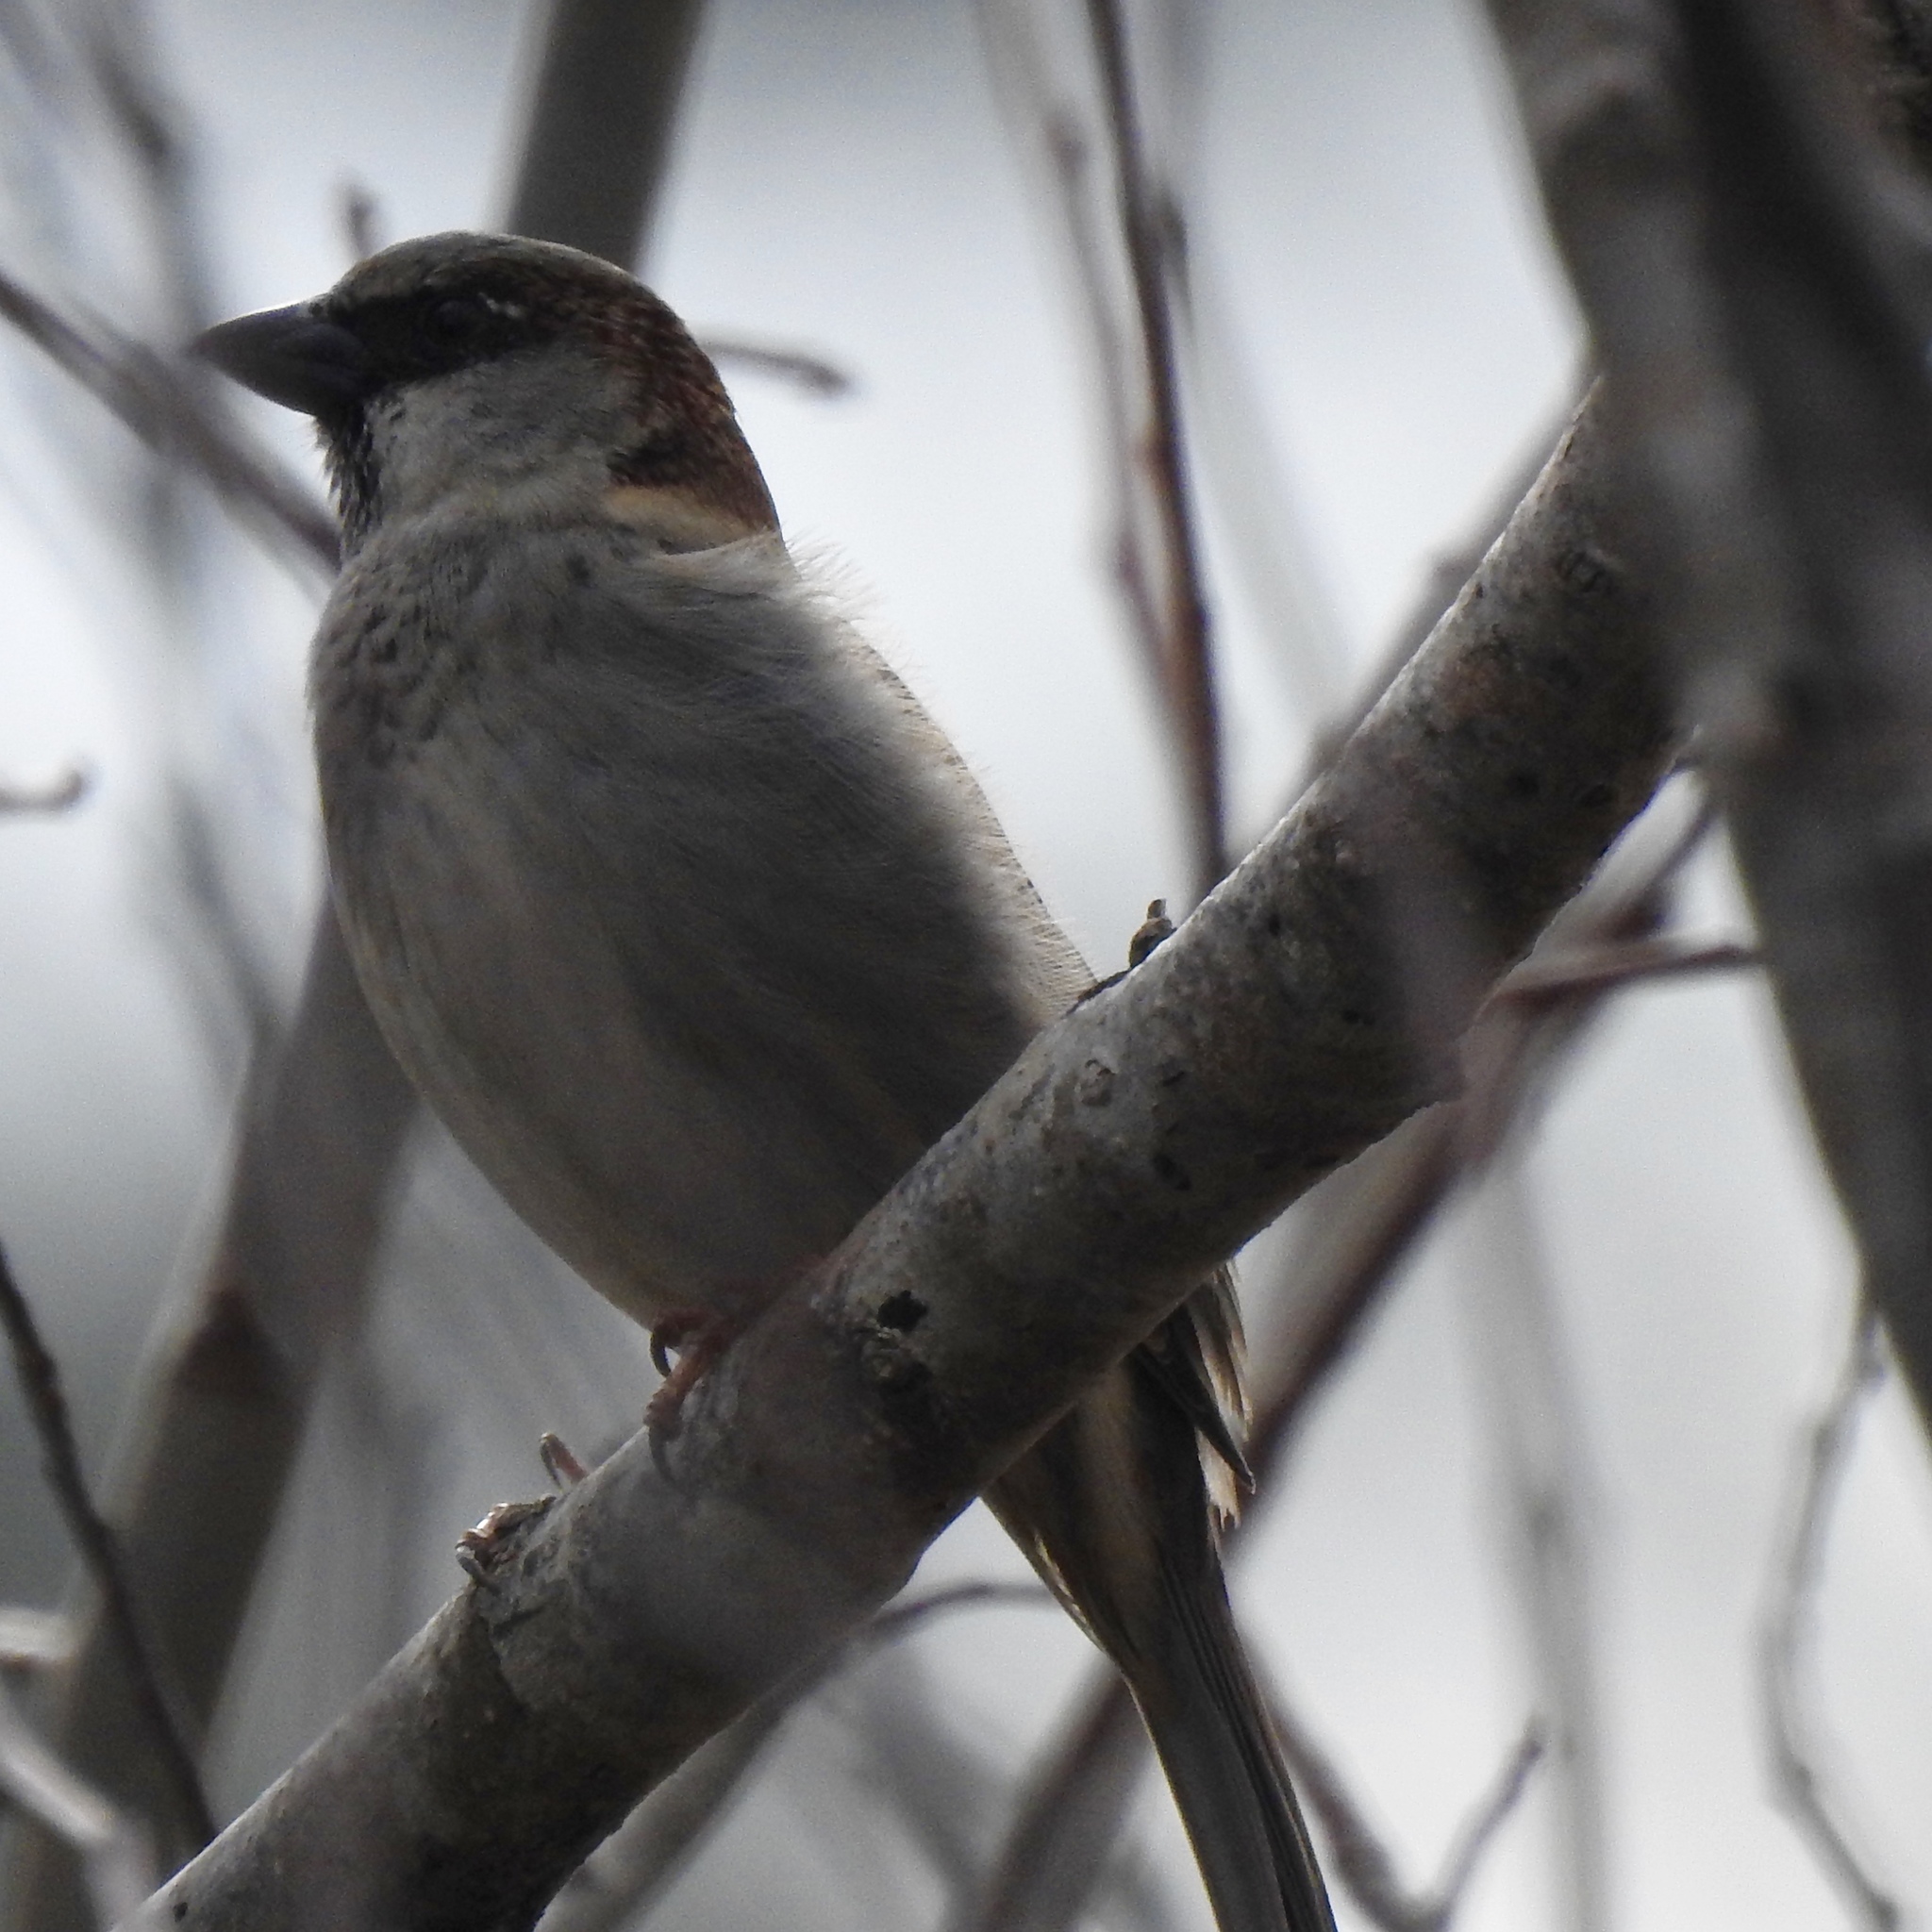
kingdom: Animalia
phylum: Chordata
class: Aves
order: Passeriformes
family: Passeridae
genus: Passer
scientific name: Passer domesticus
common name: House sparrow
